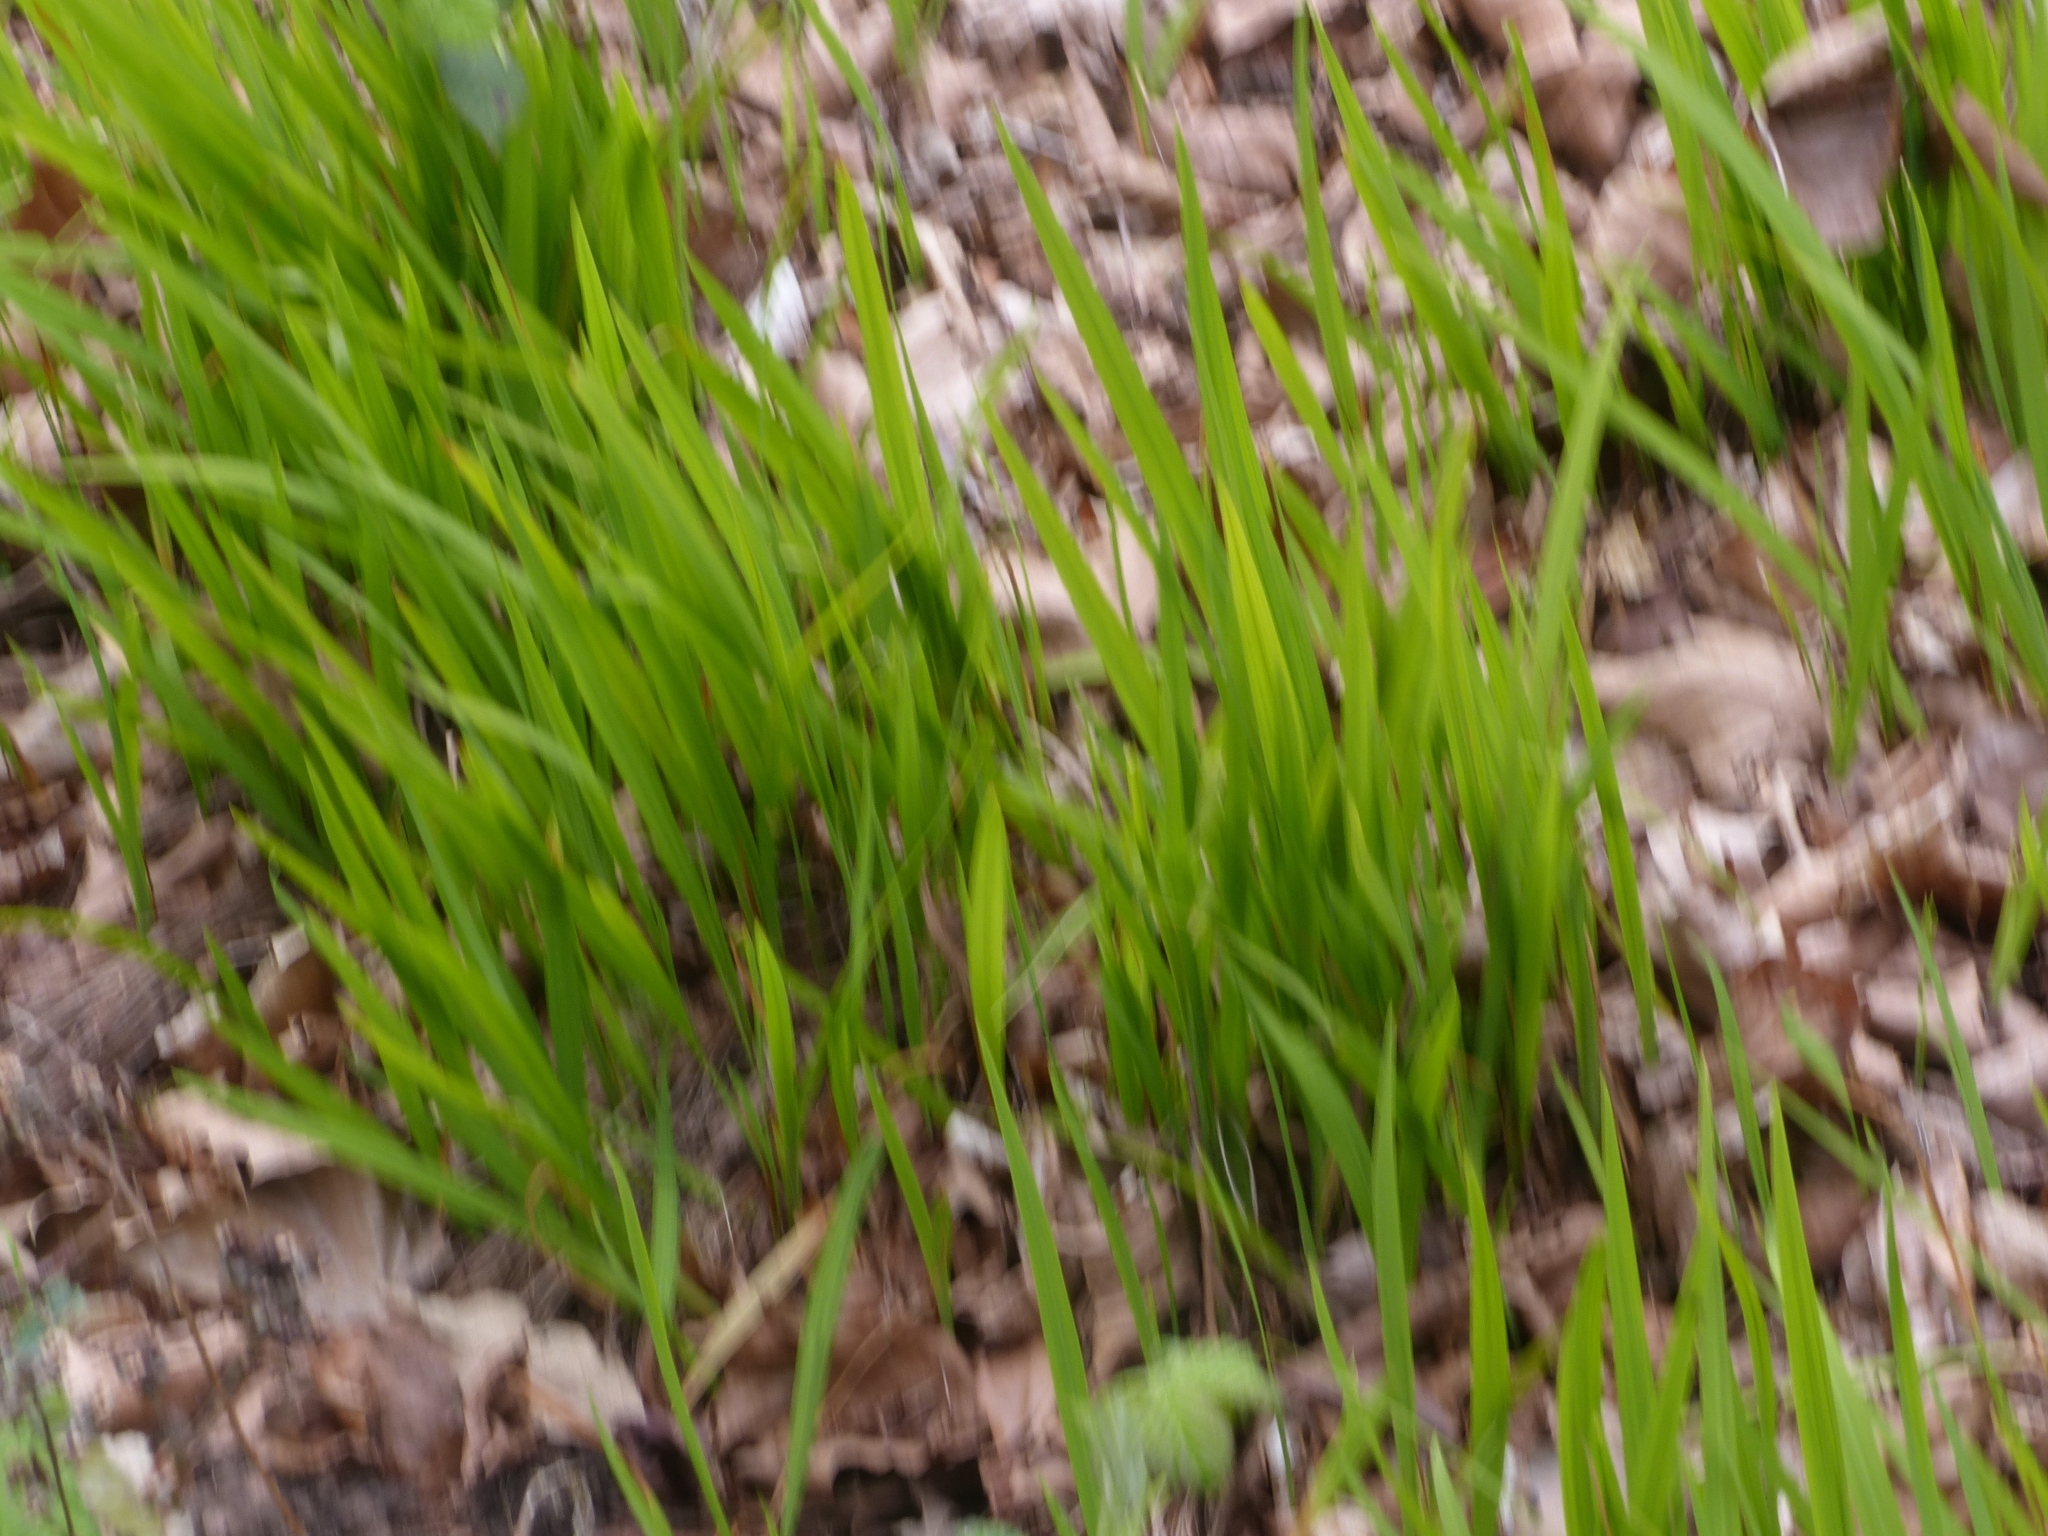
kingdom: Plantae
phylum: Tracheophyta
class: Liliopsida
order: Asparagales
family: Iridaceae
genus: Crocosmia
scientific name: Crocosmia crocosmiiflora
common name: Montbretia
